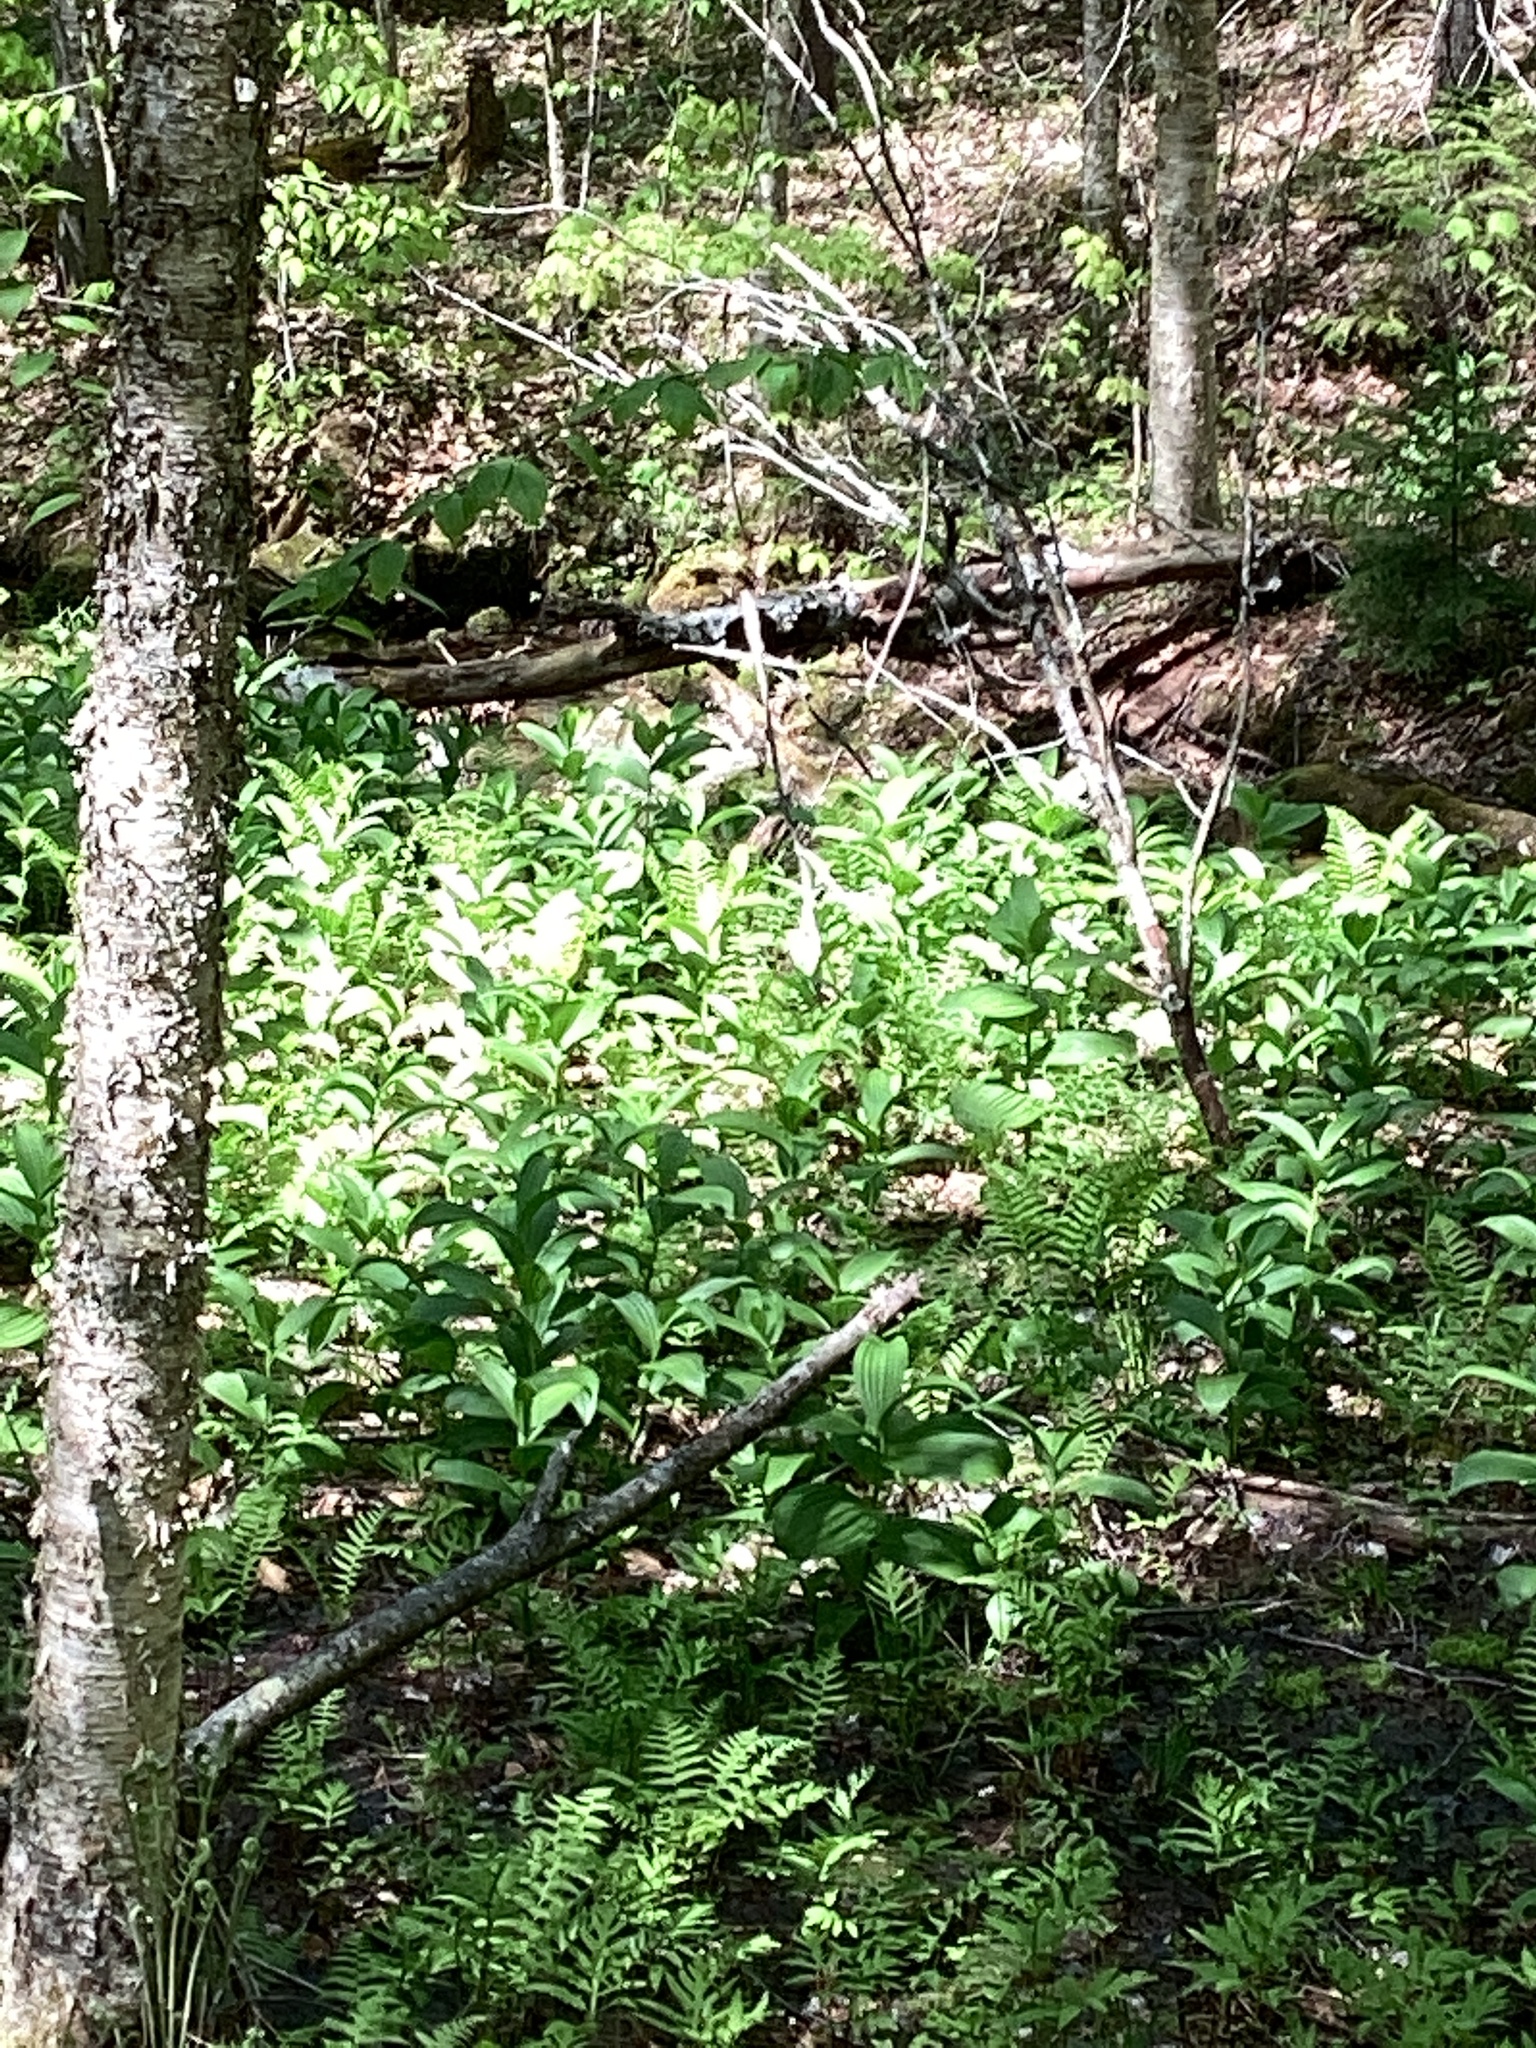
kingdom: Plantae
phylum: Tracheophyta
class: Liliopsida
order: Liliales
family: Melanthiaceae
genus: Veratrum
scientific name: Veratrum viride
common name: American false hellebore
